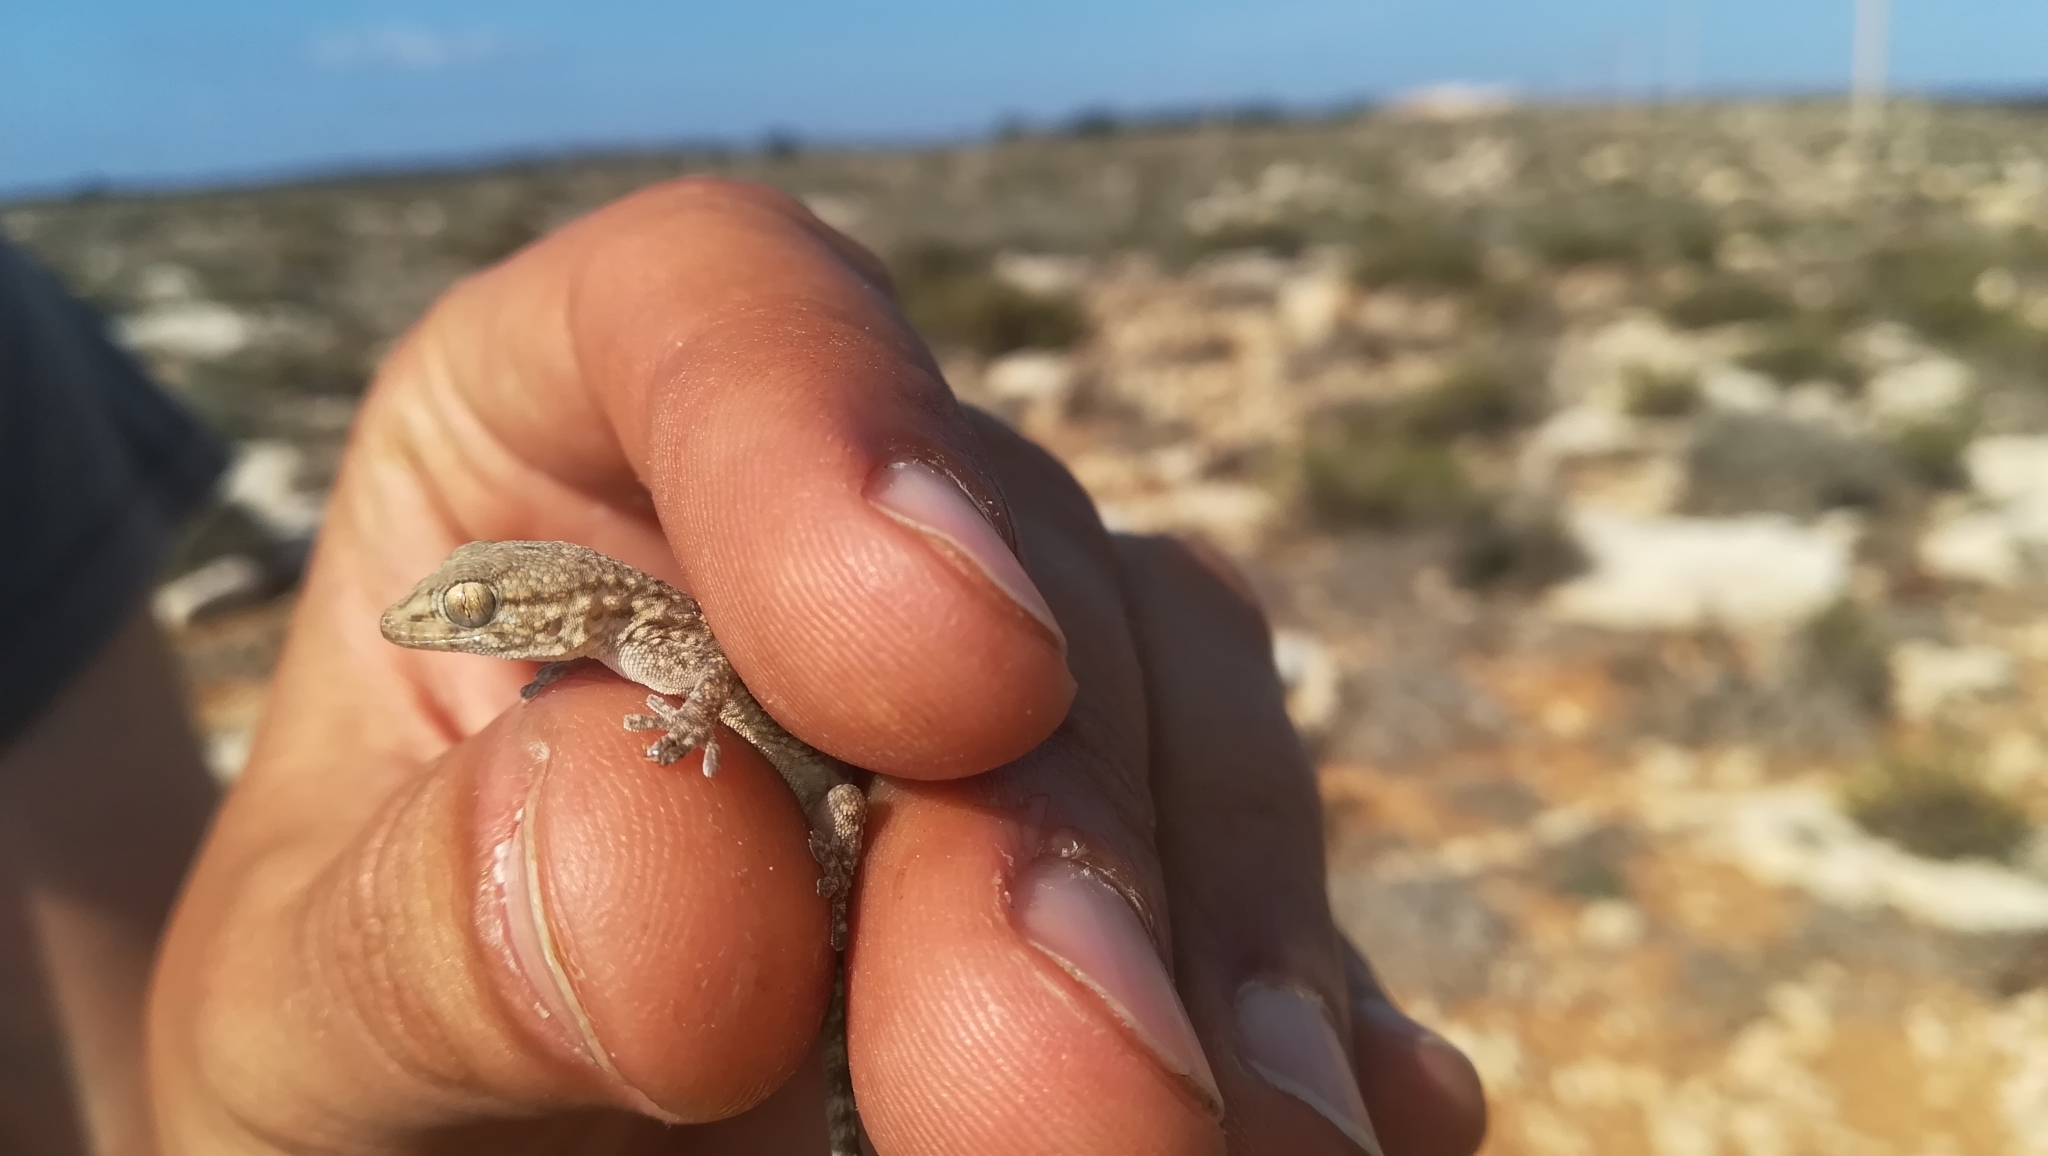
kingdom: Animalia
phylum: Chordata
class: Squamata
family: Phyllodactylidae
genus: Tarentola
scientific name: Tarentola mauritanica
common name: Moorish gecko
